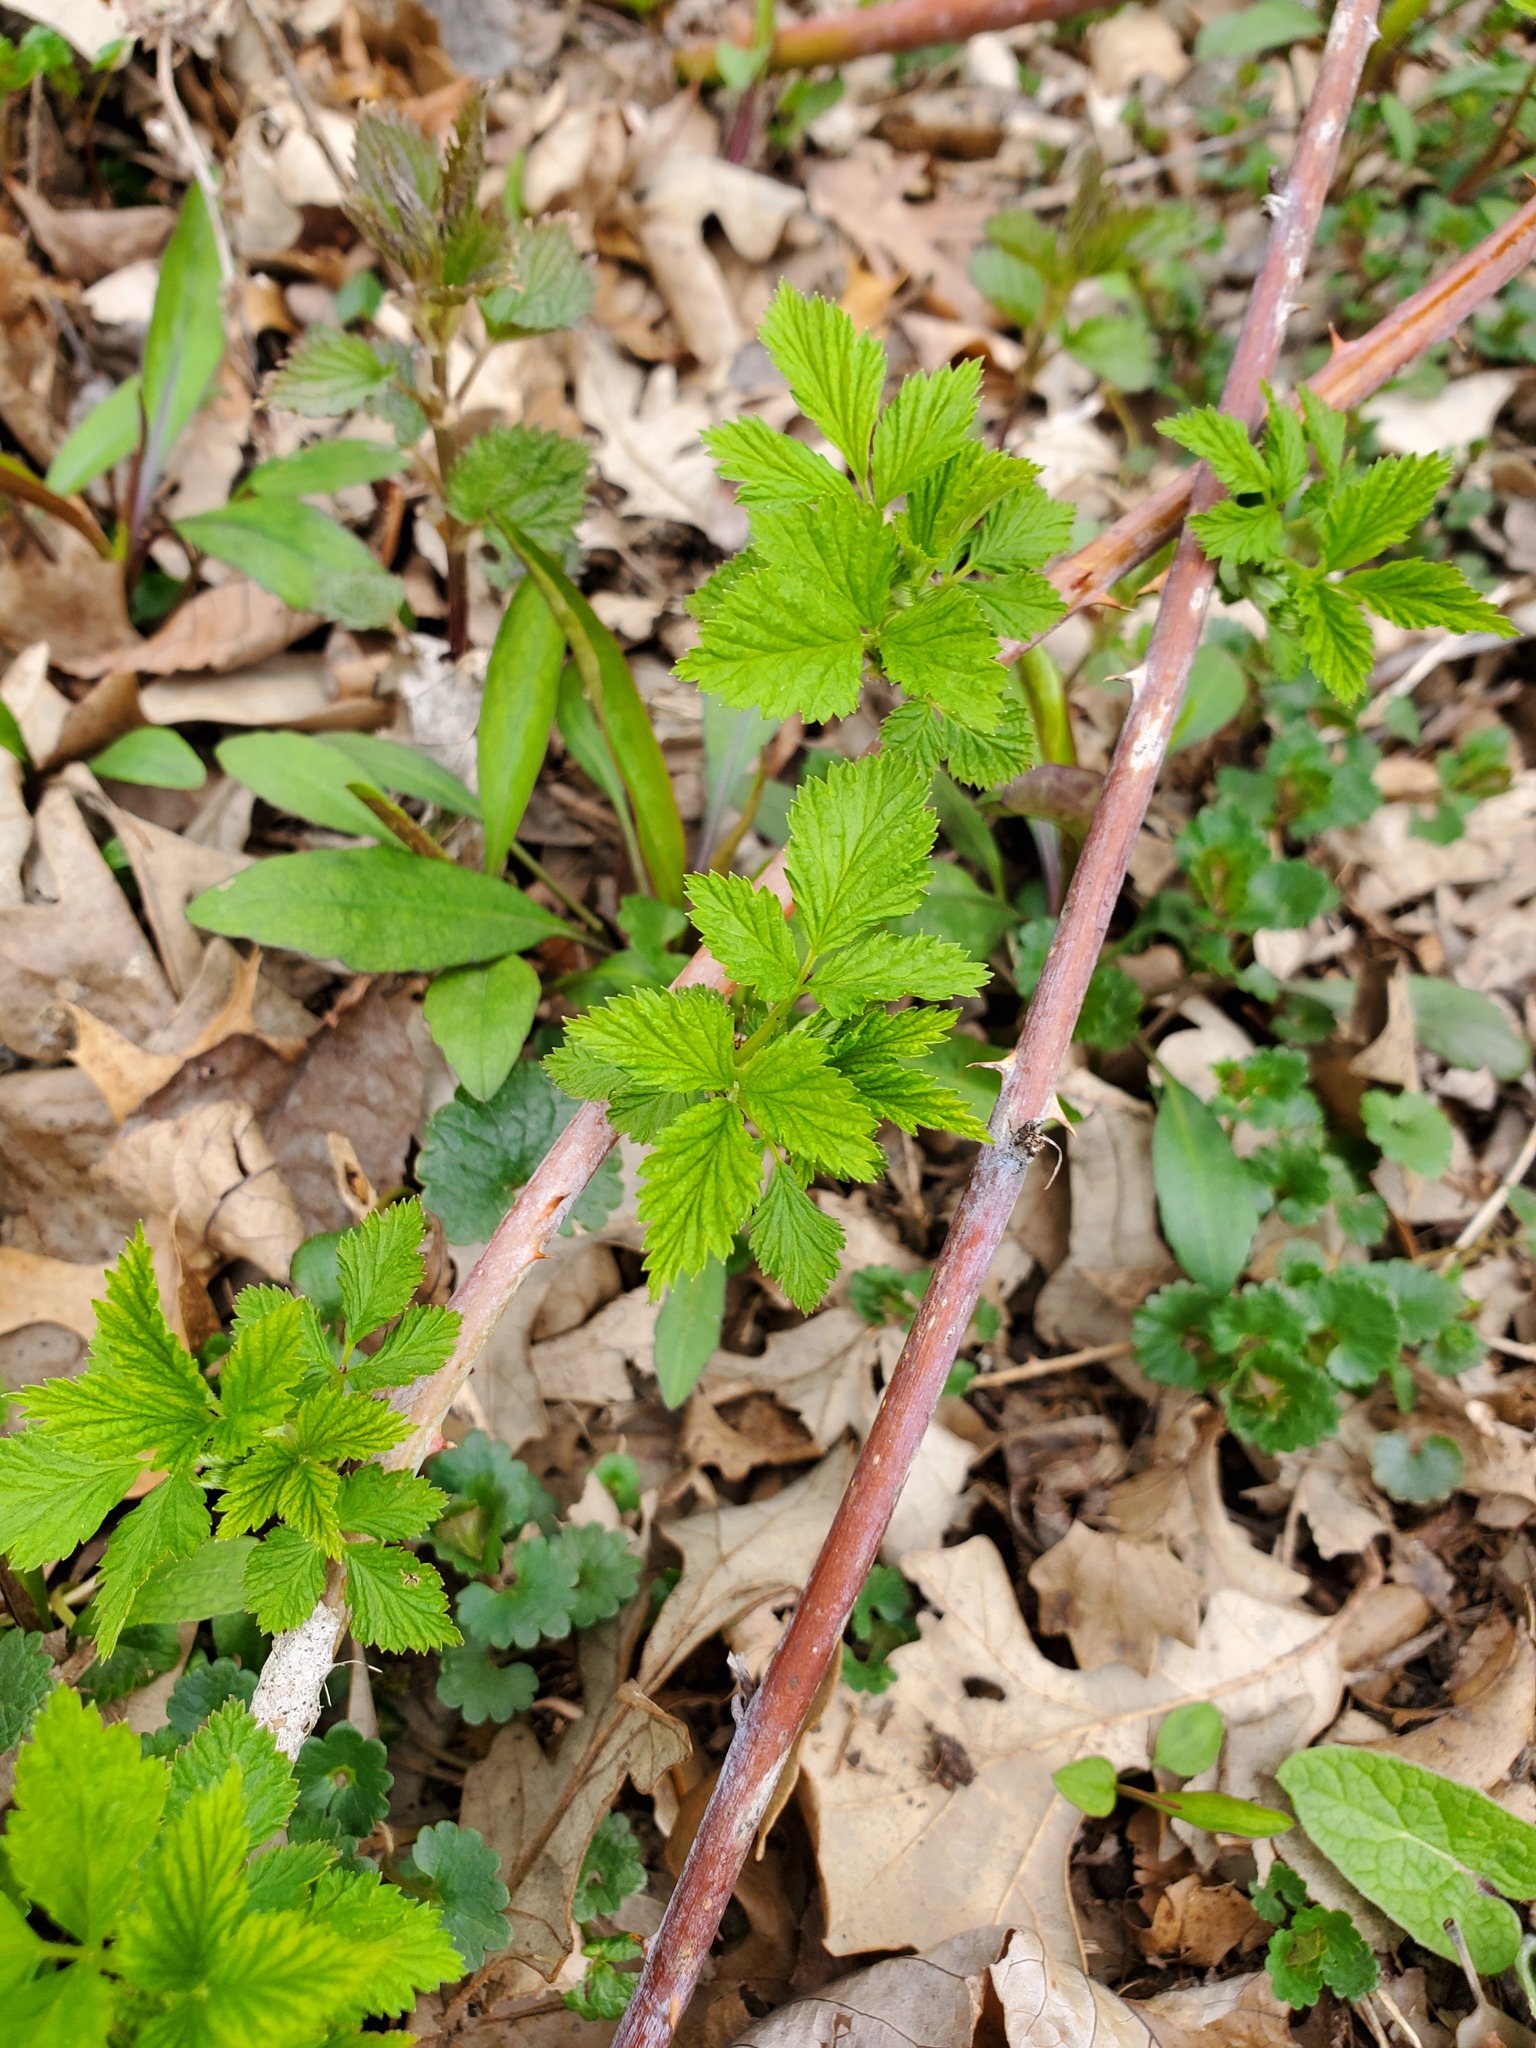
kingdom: Plantae
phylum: Tracheophyta
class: Magnoliopsida
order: Rosales
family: Rosaceae
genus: Rubus
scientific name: Rubus occidentalis
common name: Black raspberry
